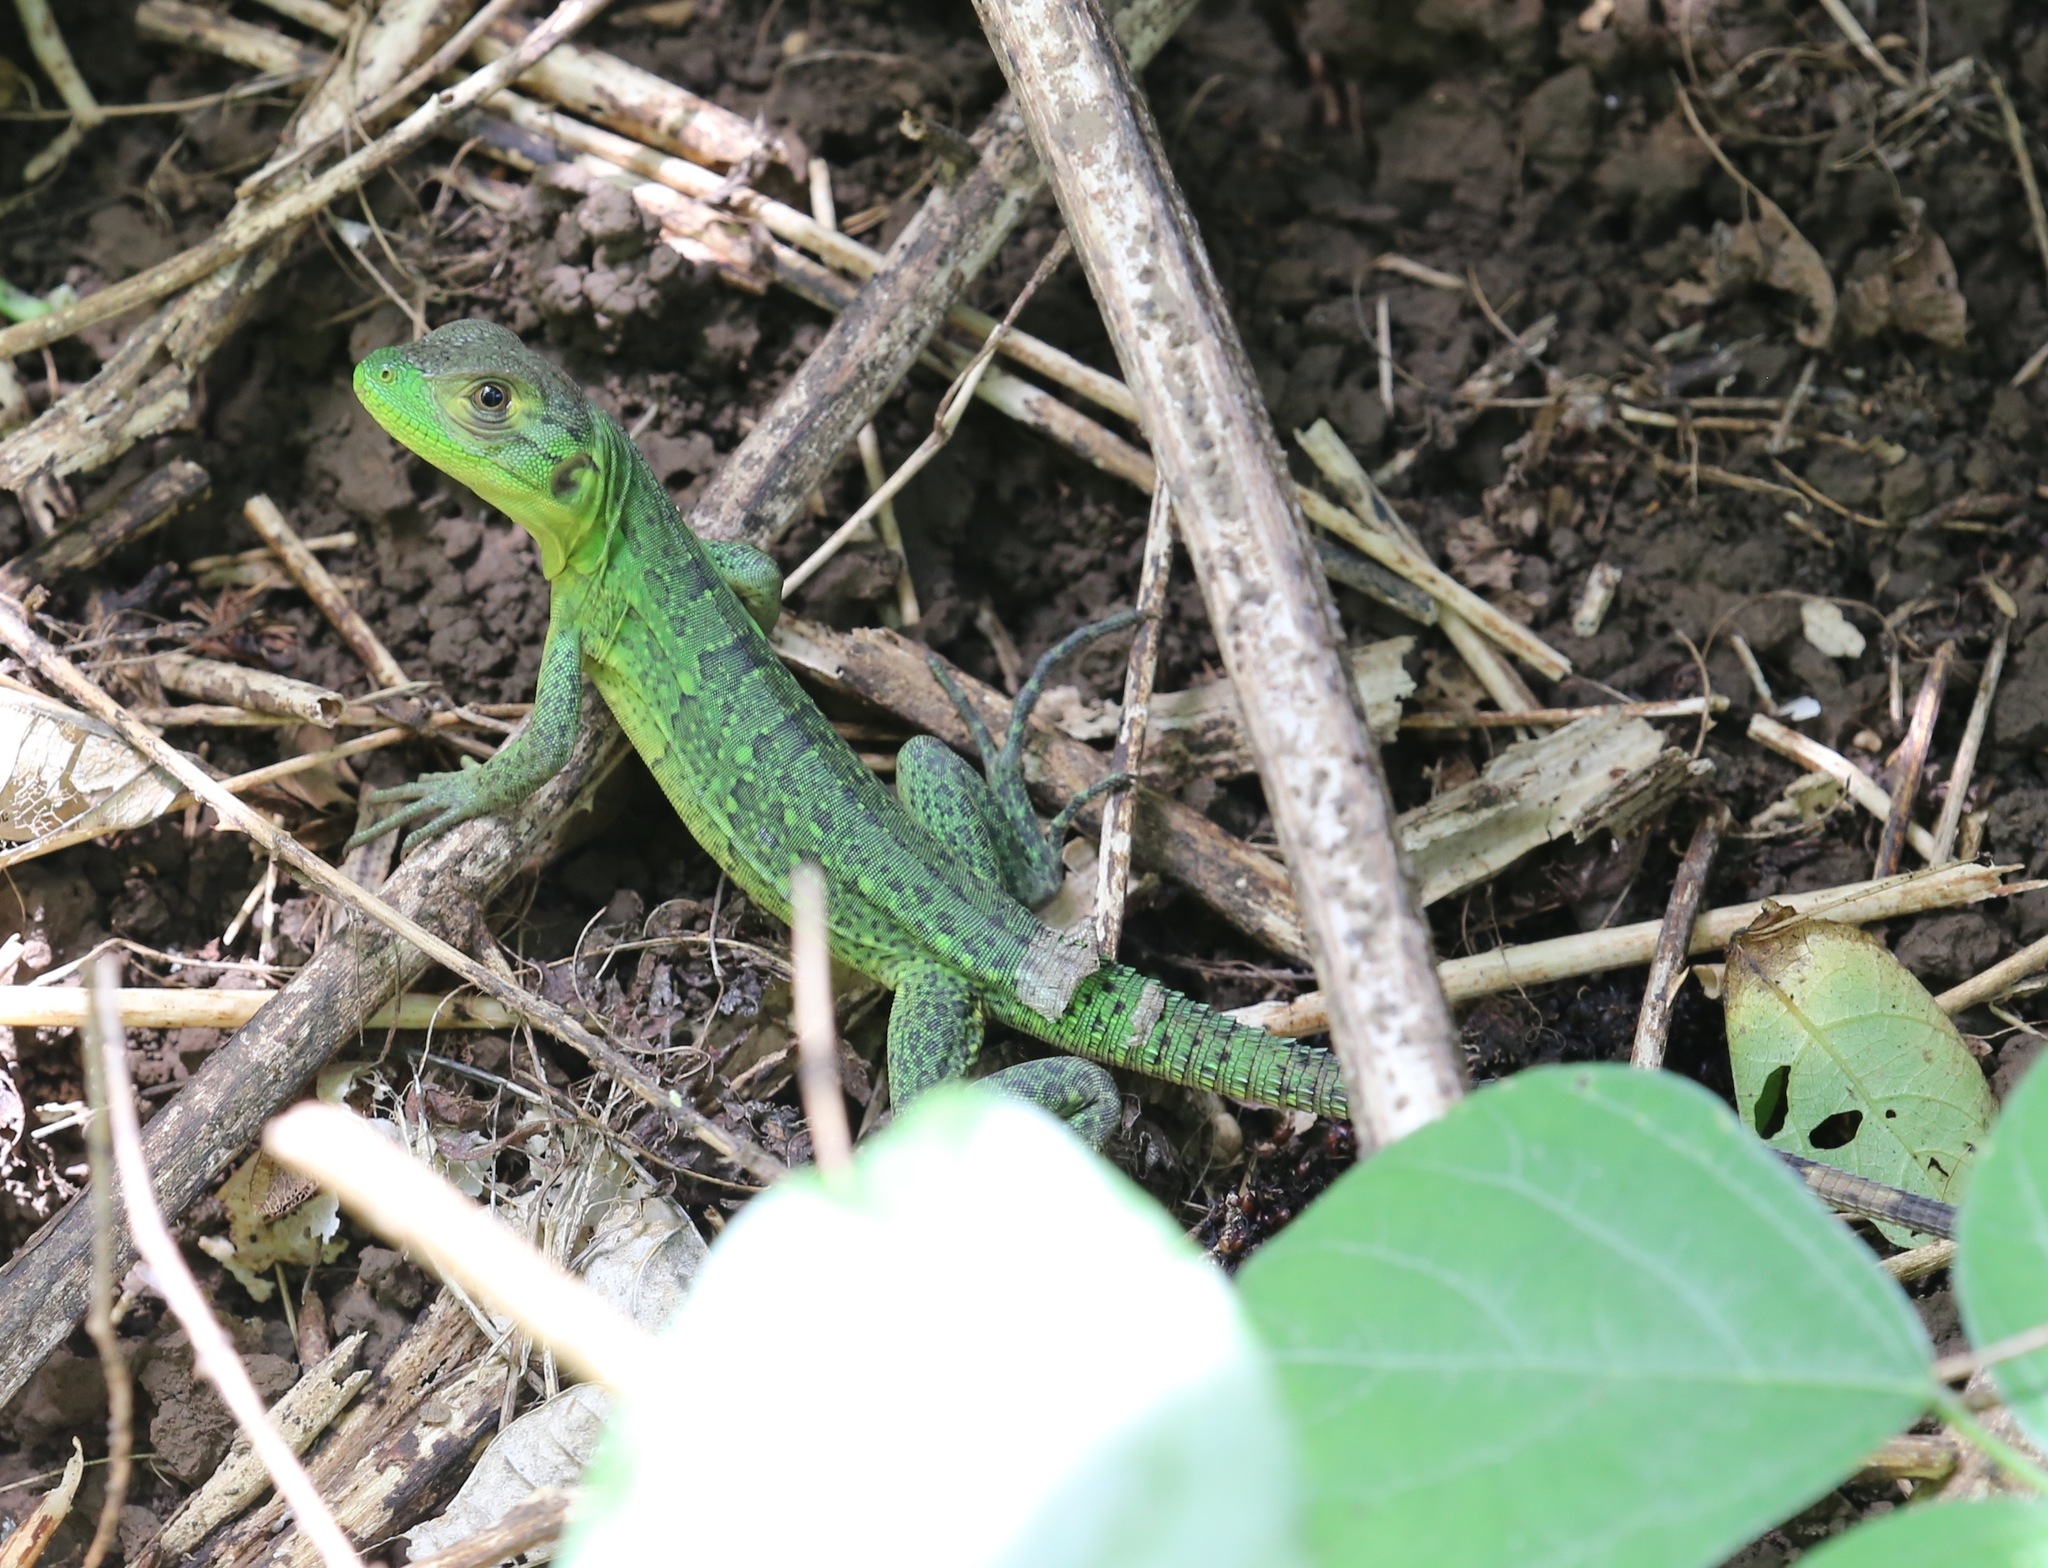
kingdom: Animalia
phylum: Chordata
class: Squamata
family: Iguanidae
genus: Ctenosaura
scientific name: Ctenosaura similis
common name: Black spiny-tailed iguana
